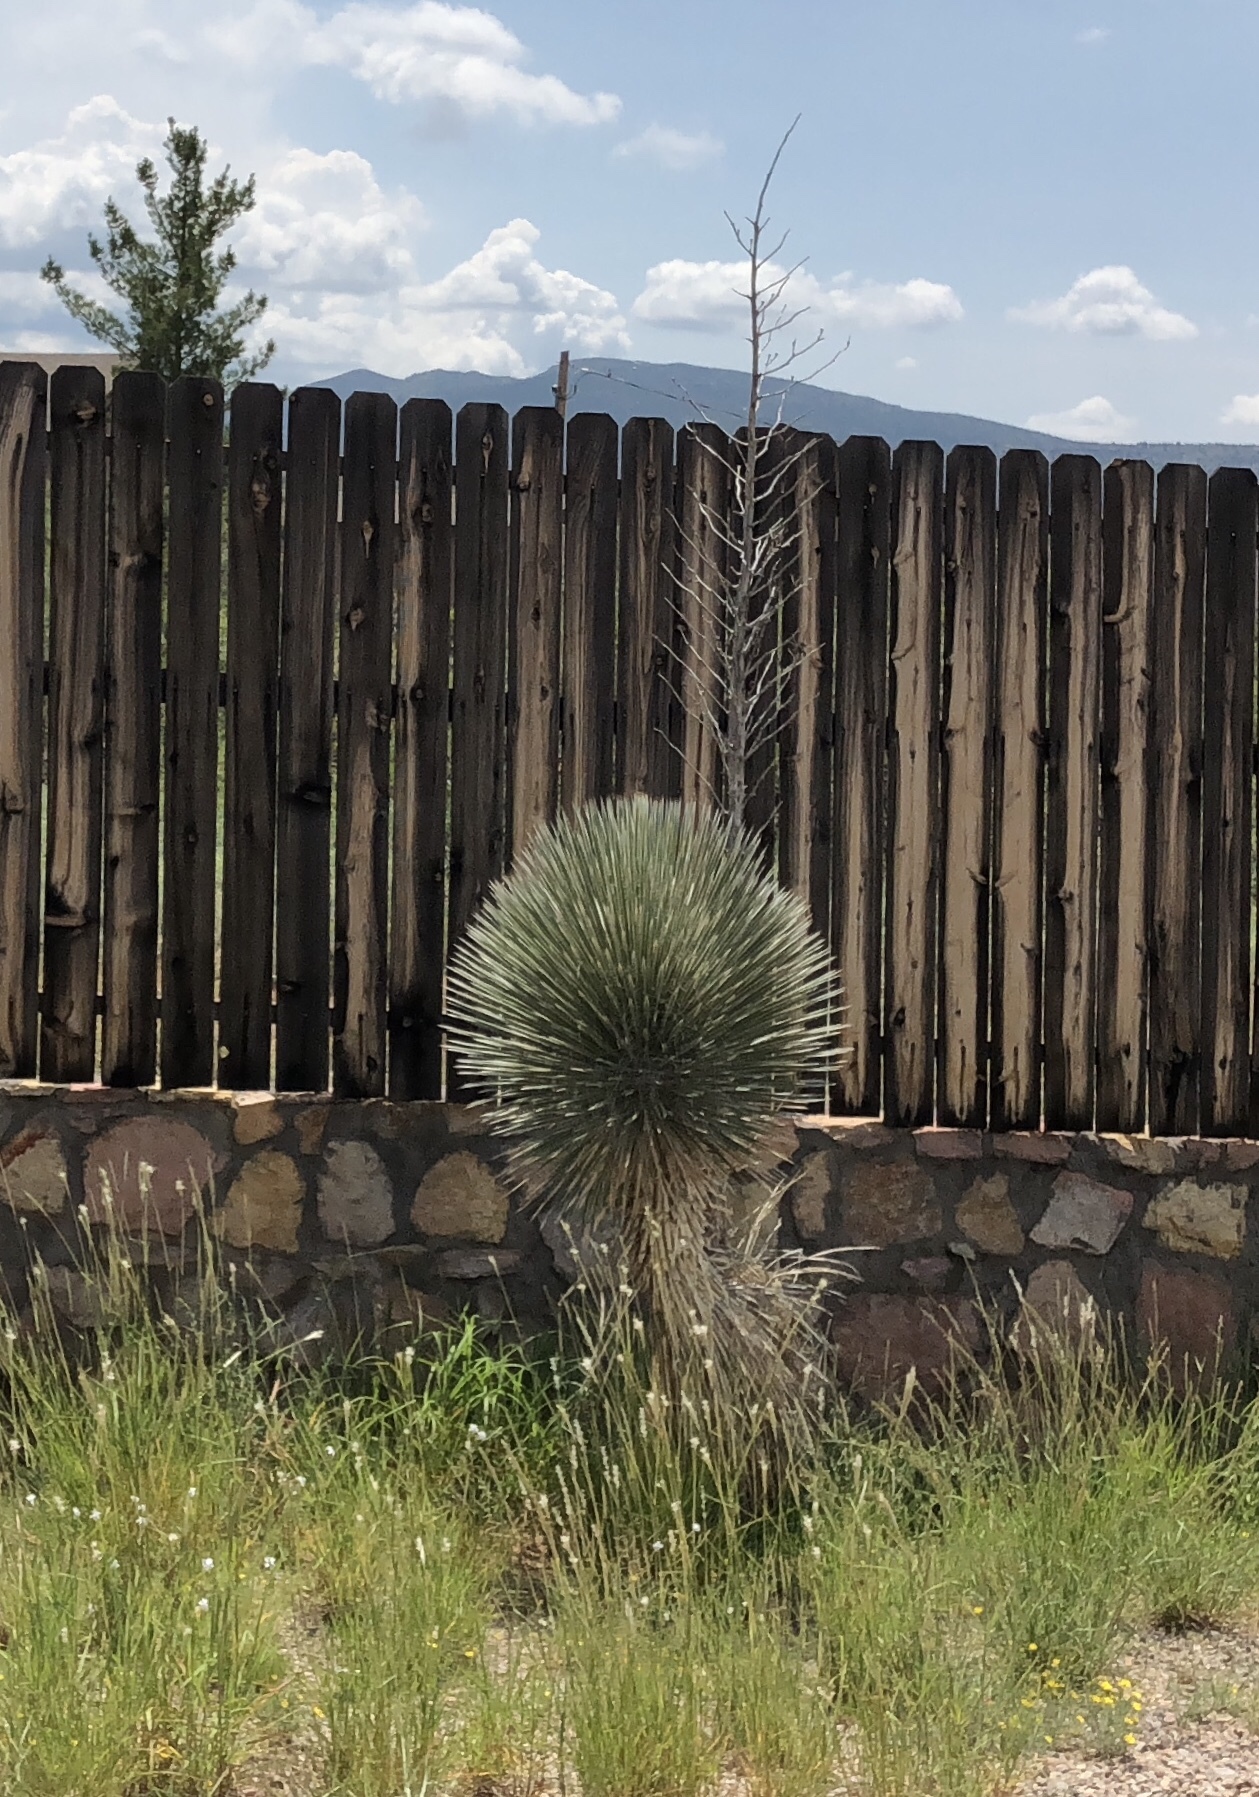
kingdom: Plantae
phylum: Tracheophyta
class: Liliopsida
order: Asparagales
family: Asparagaceae
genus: Yucca
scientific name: Yucca elata
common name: Palmella
